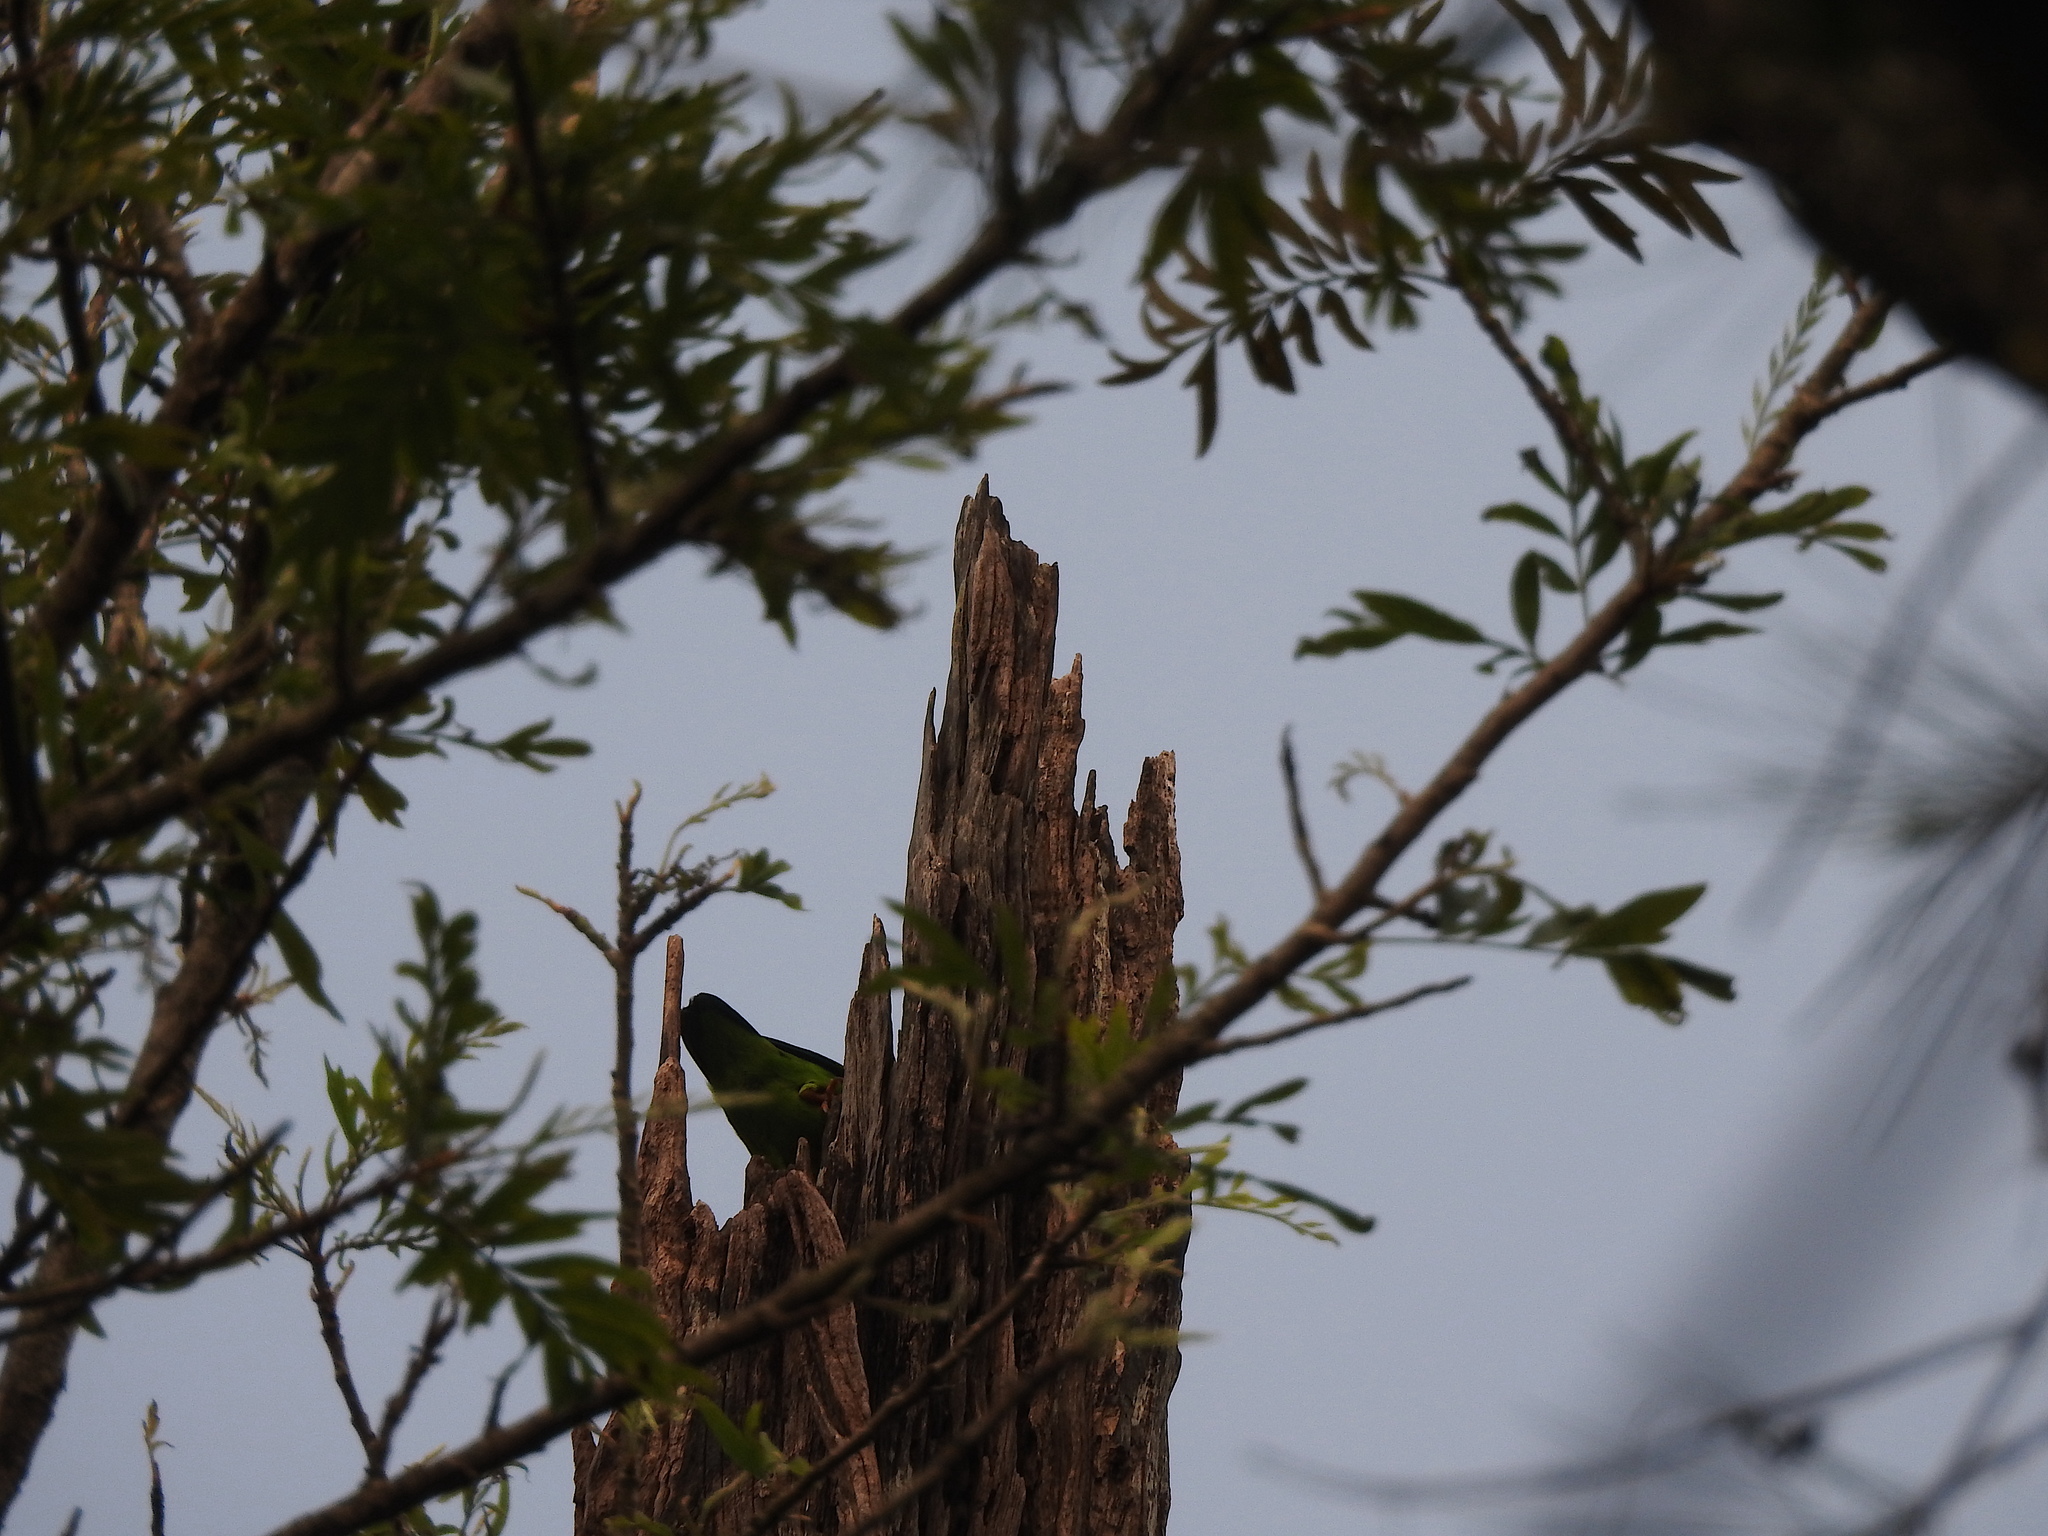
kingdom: Animalia
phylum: Chordata
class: Aves
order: Psittaciformes
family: Psittacidae
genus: Loriculus
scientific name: Loriculus vernalis
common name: Vernal hanging parrot
